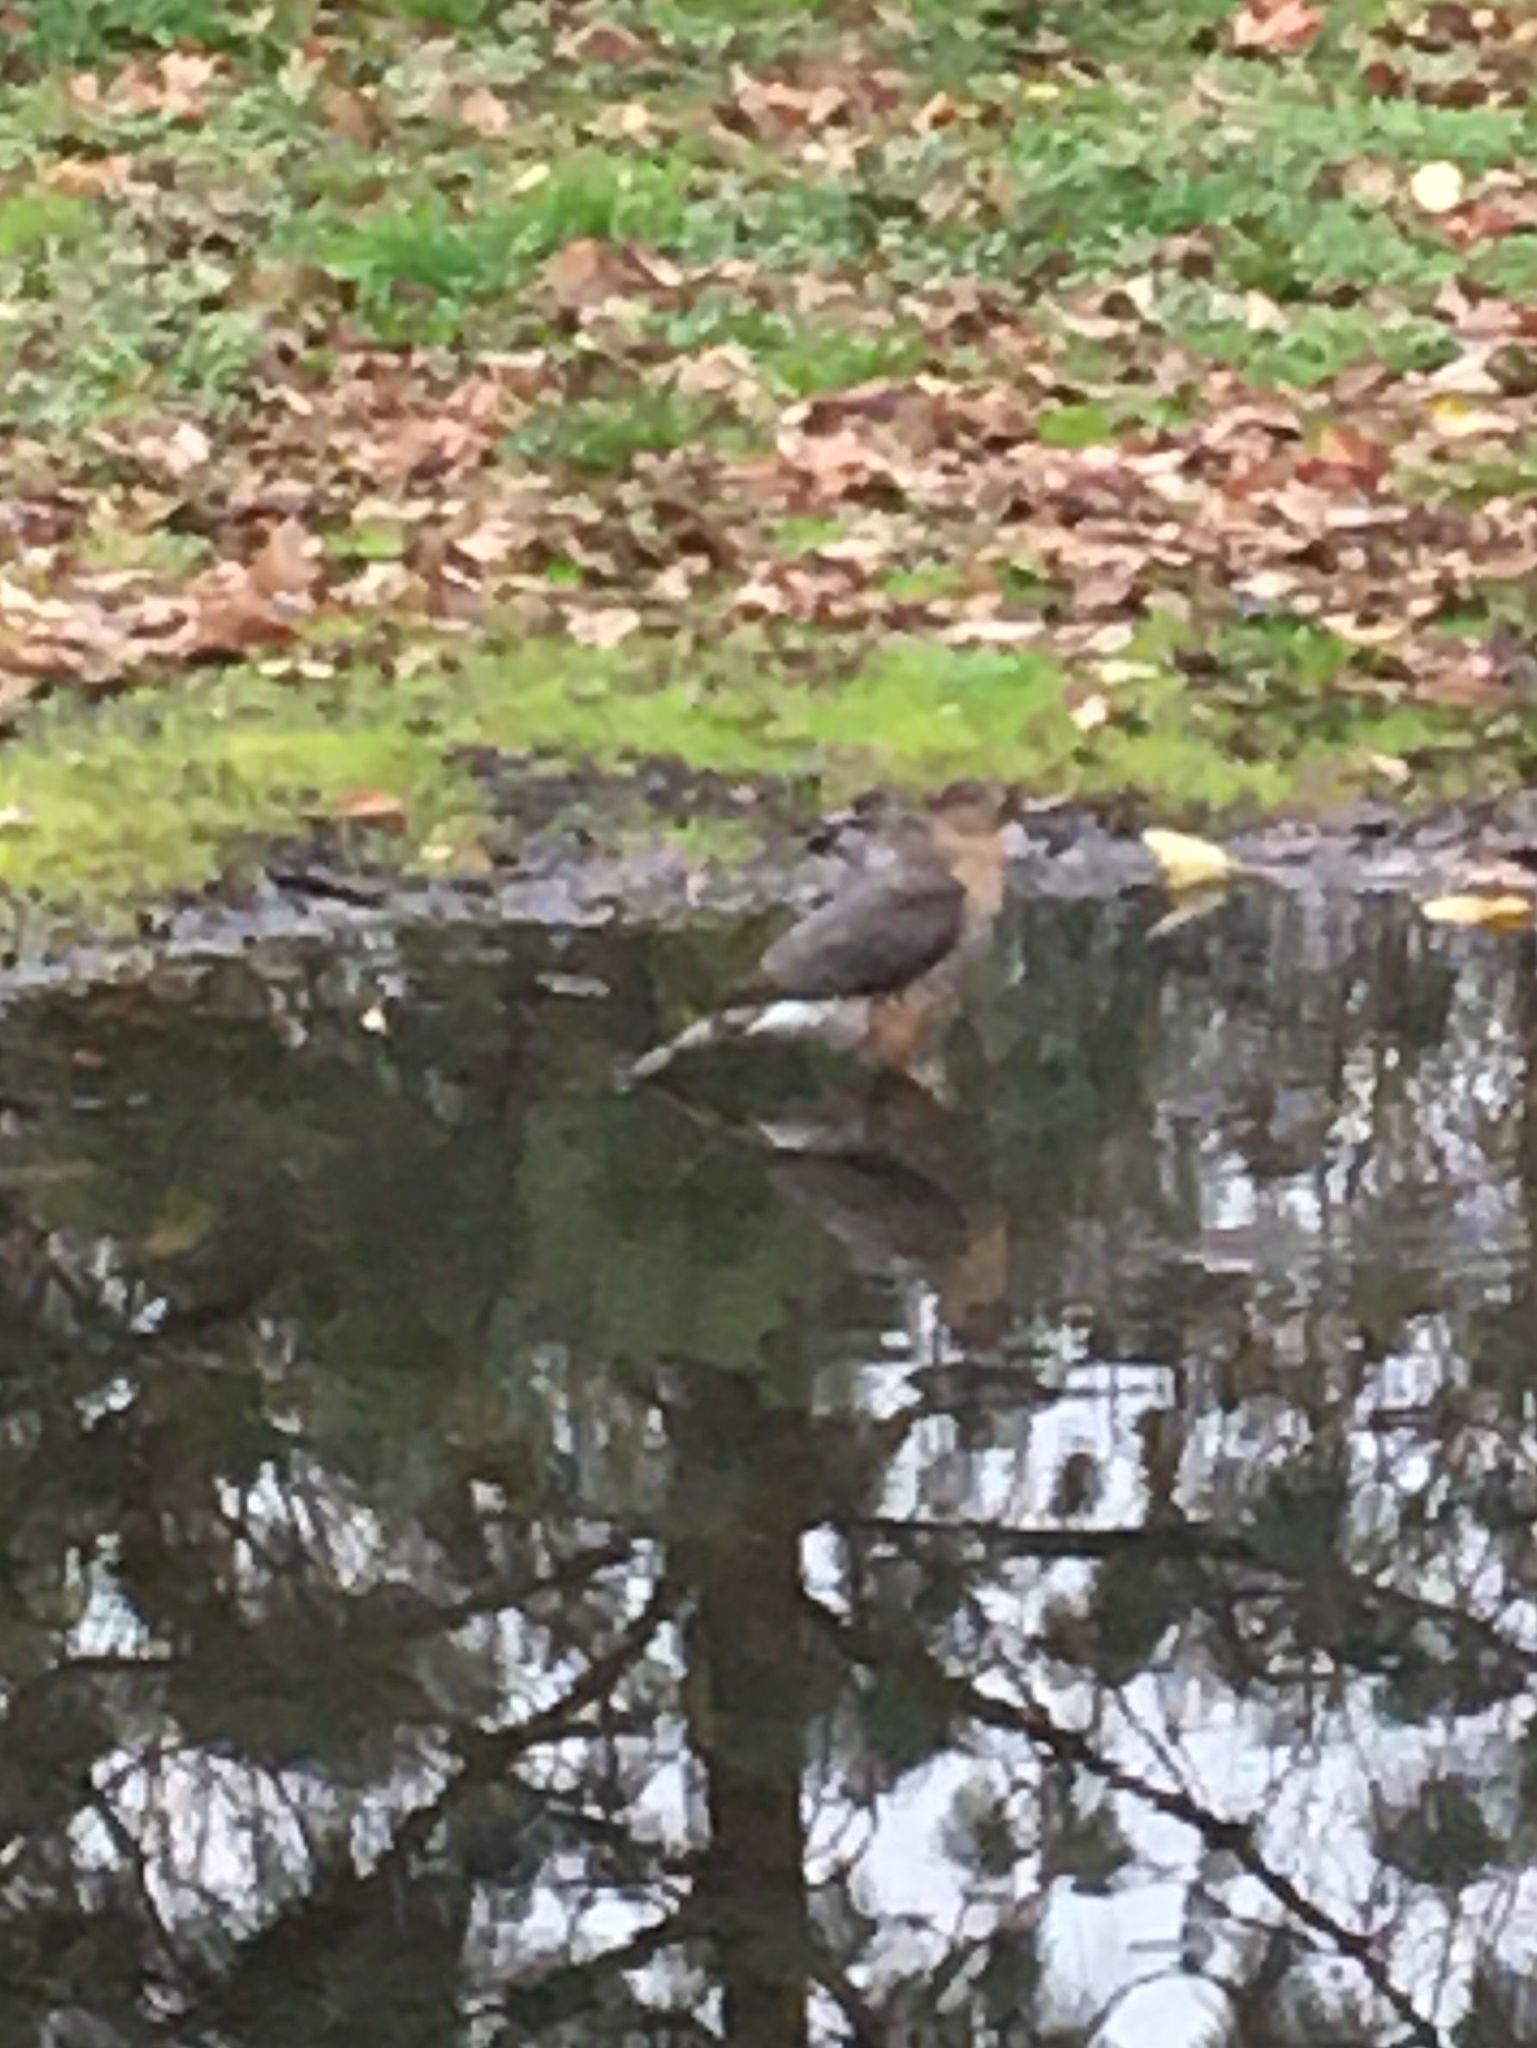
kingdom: Animalia
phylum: Chordata
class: Aves
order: Accipitriformes
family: Accipitridae
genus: Accipiter
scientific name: Accipiter cooperii
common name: Cooper's hawk
